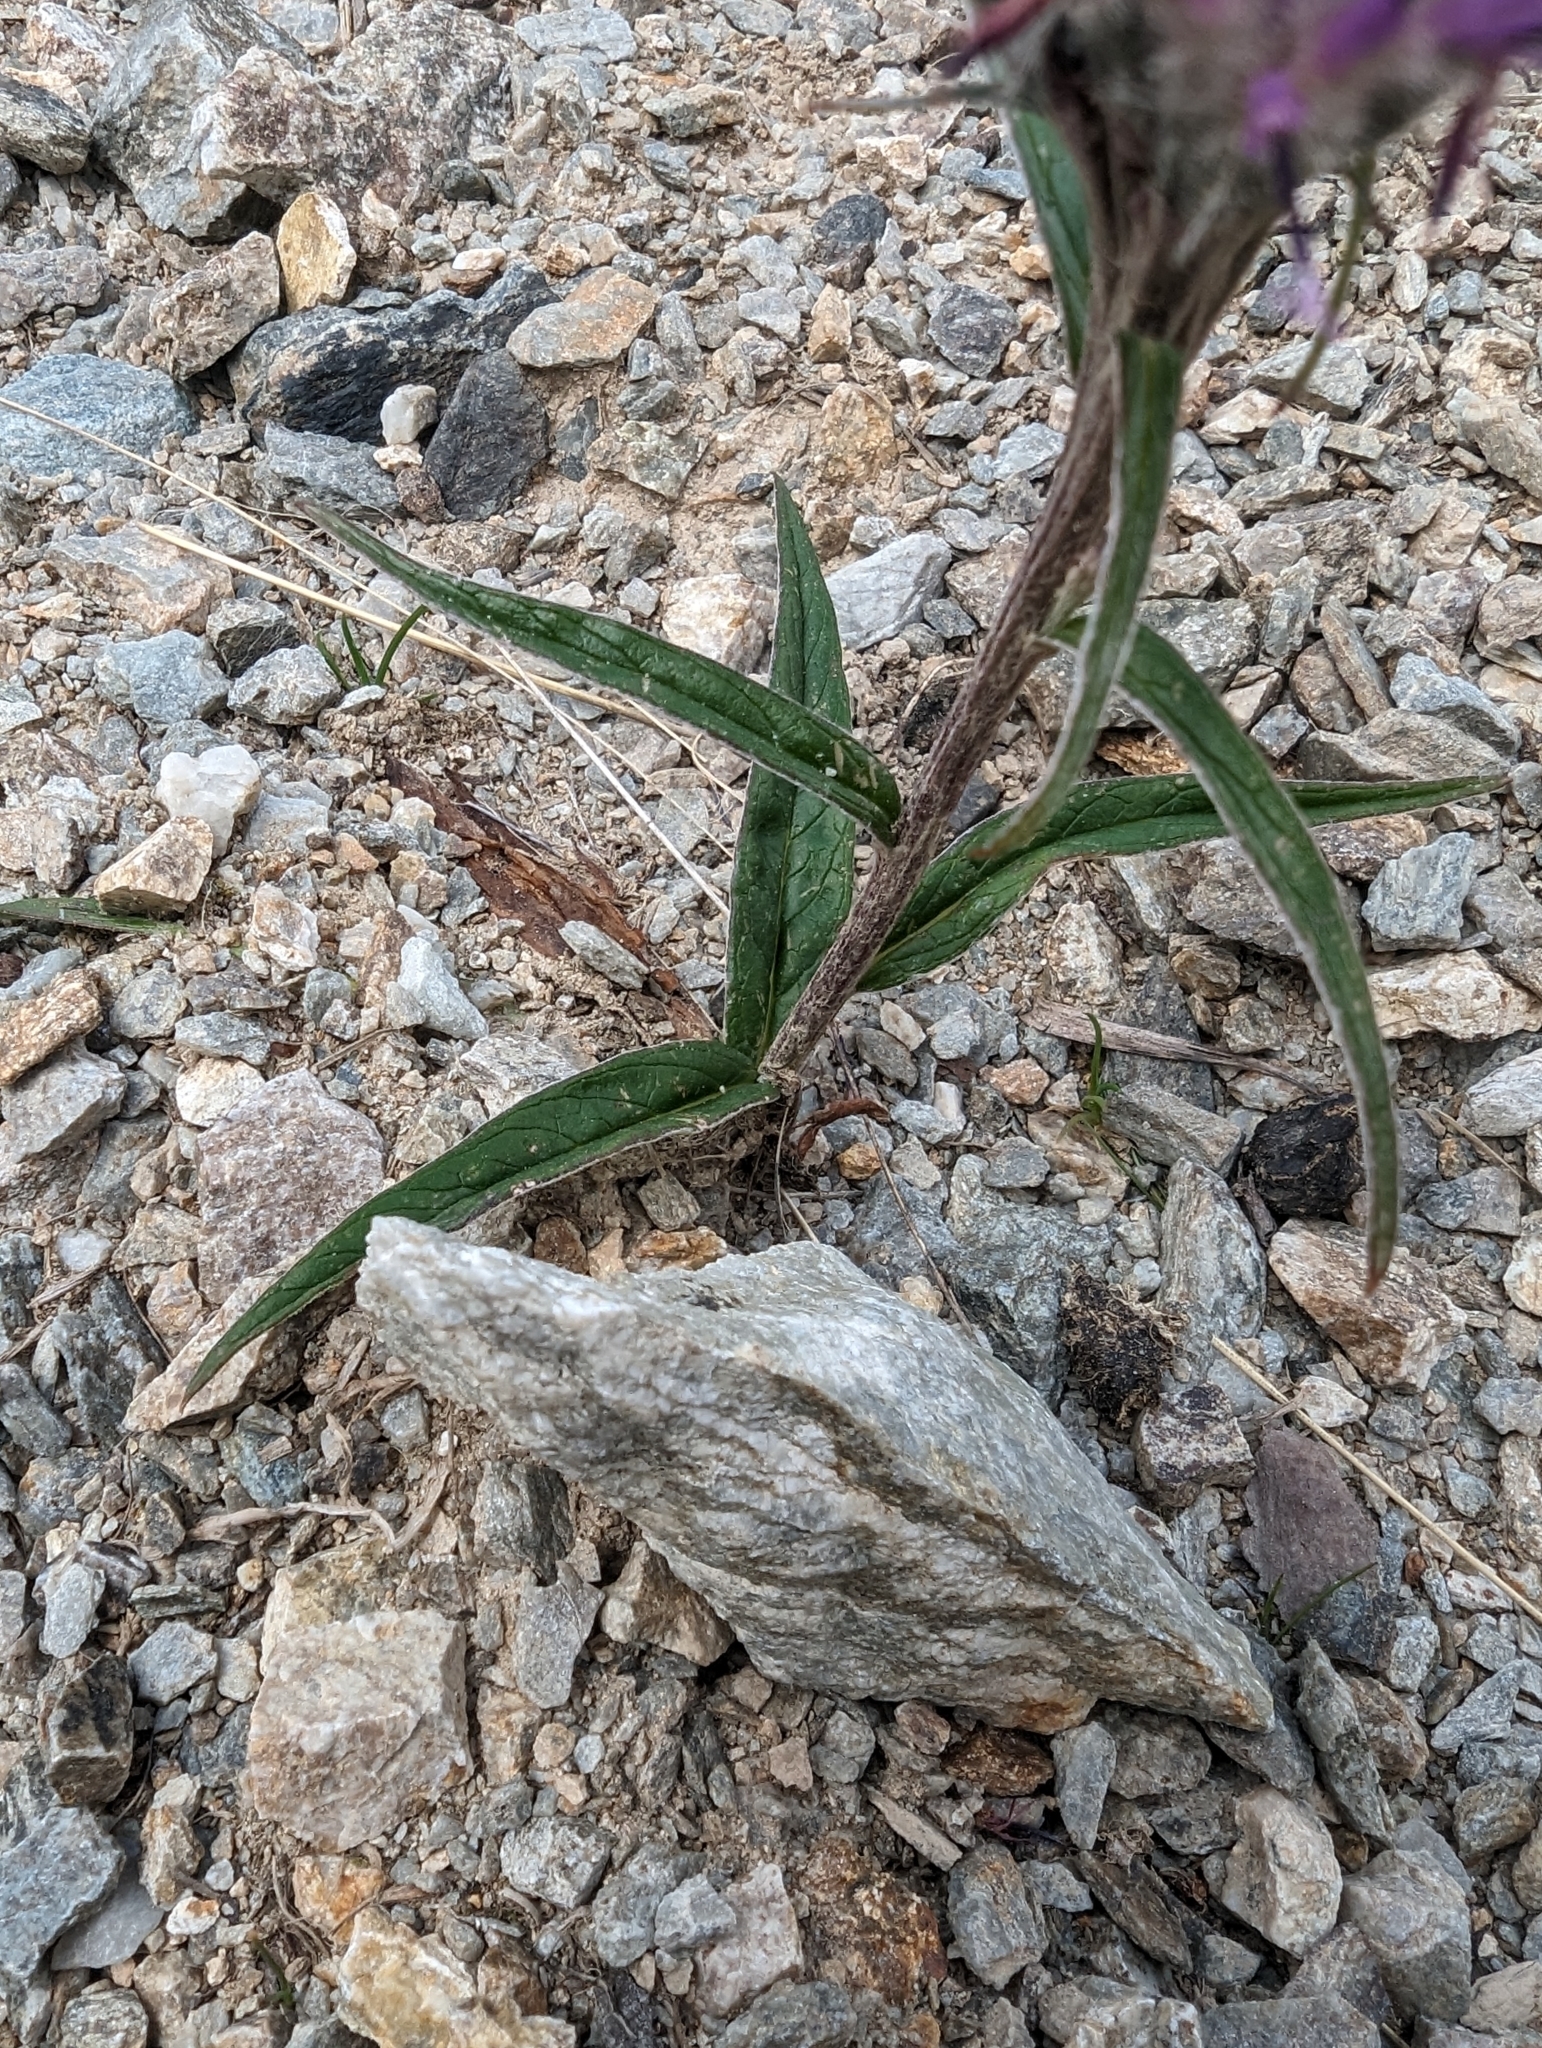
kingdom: Plantae
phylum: Tracheophyta
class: Magnoliopsida
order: Asterales
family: Asteraceae
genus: Saussurea
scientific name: Saussurea alpina
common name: Alpine saw-wort
